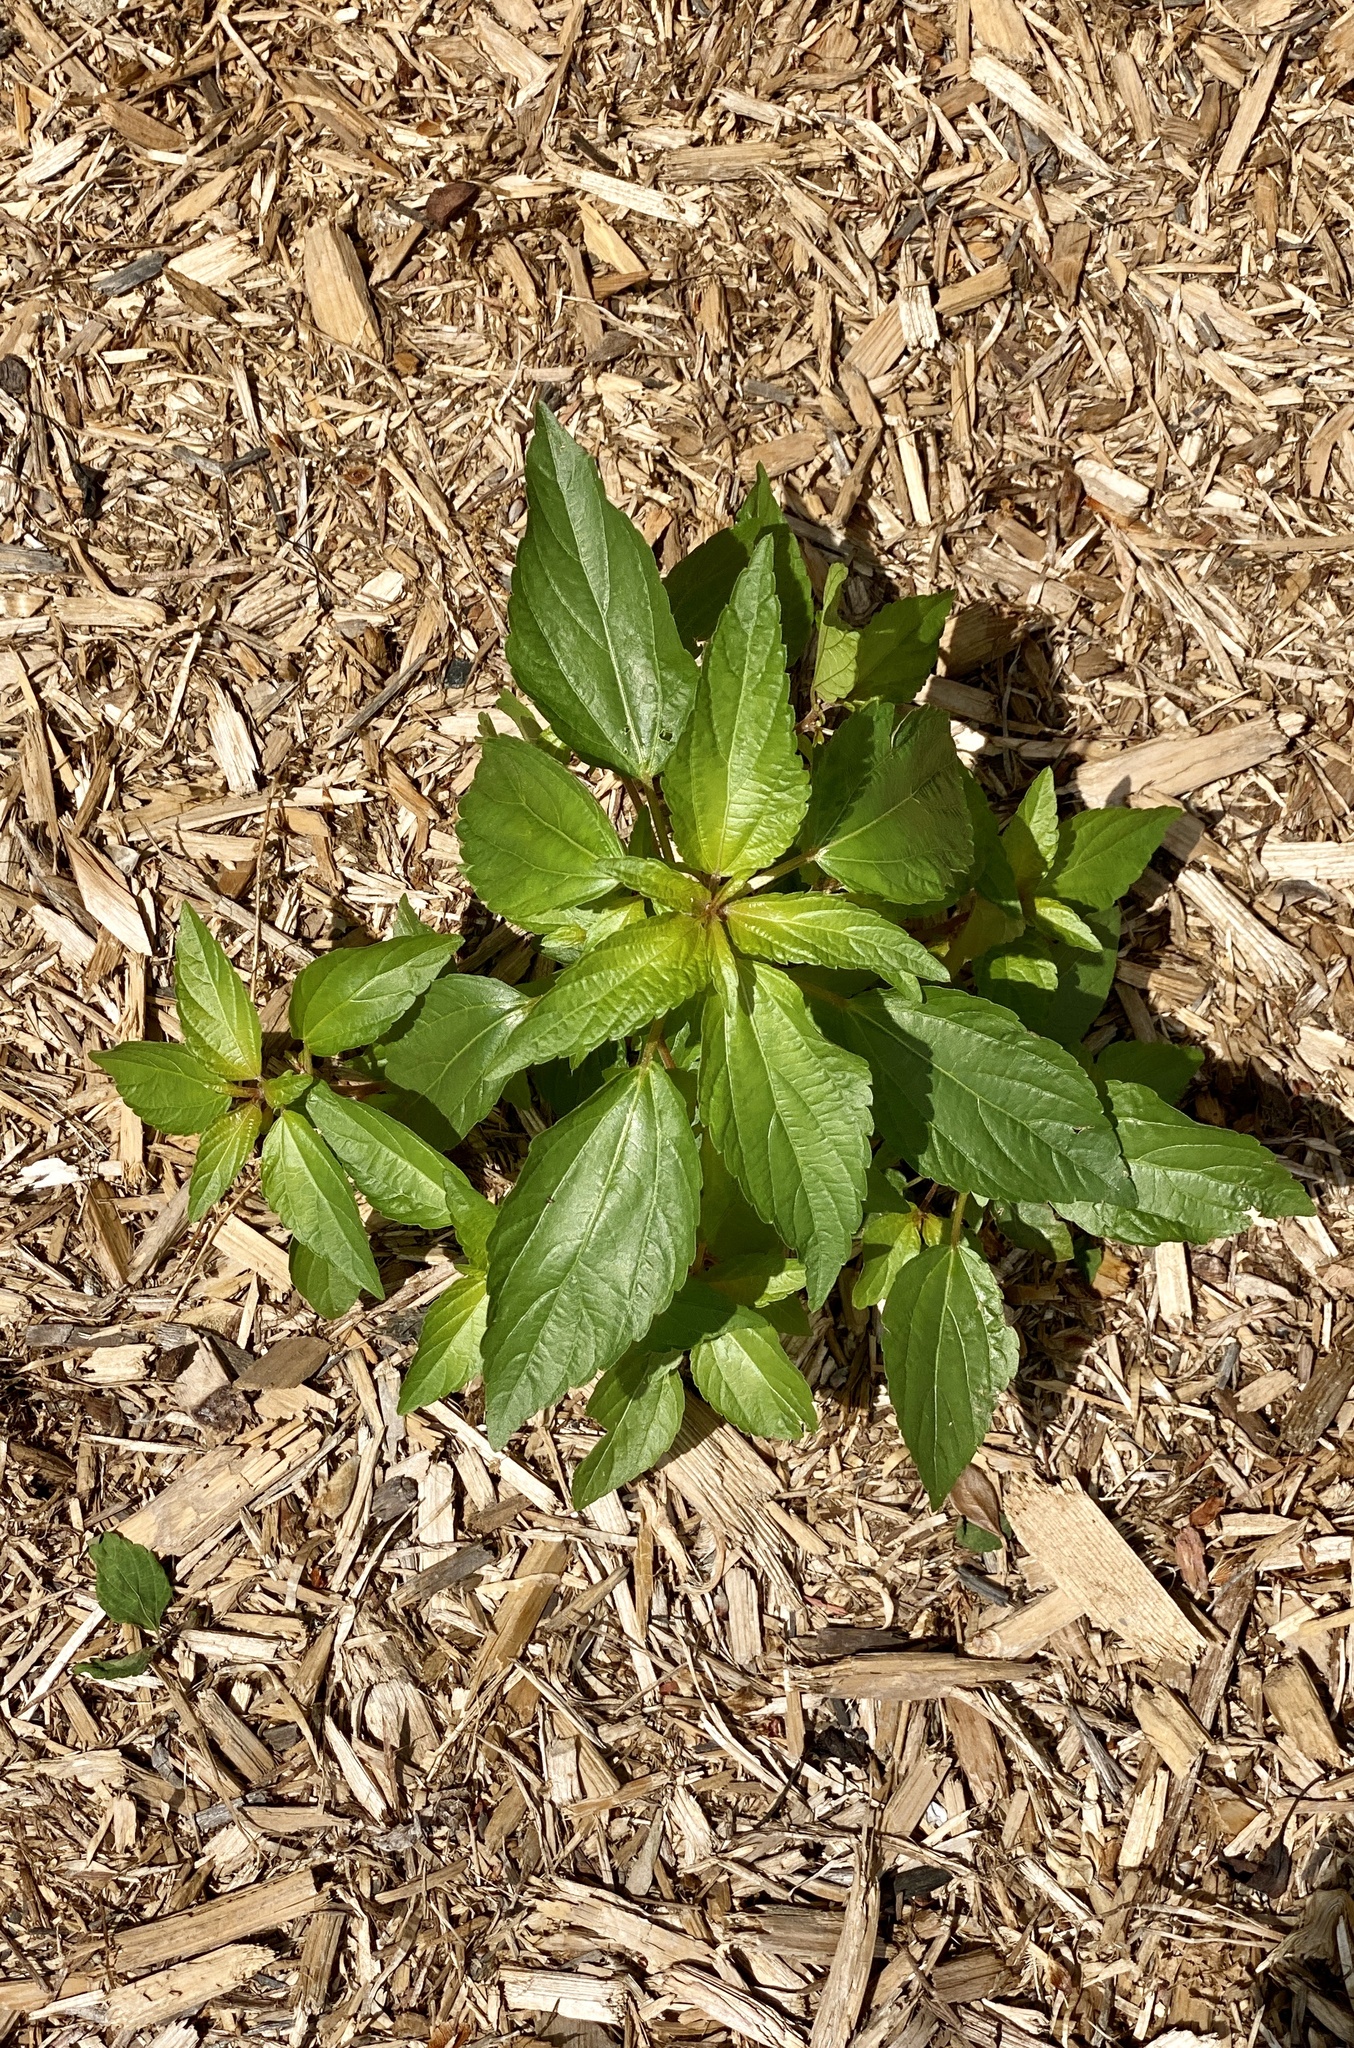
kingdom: Plantae
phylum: Tracheophyta
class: Magnoliopsida
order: Malpighiales
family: Euphorbiaceae
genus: Acalypha
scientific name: Acalypha rhomboidea
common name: Rhombic copperleaf
